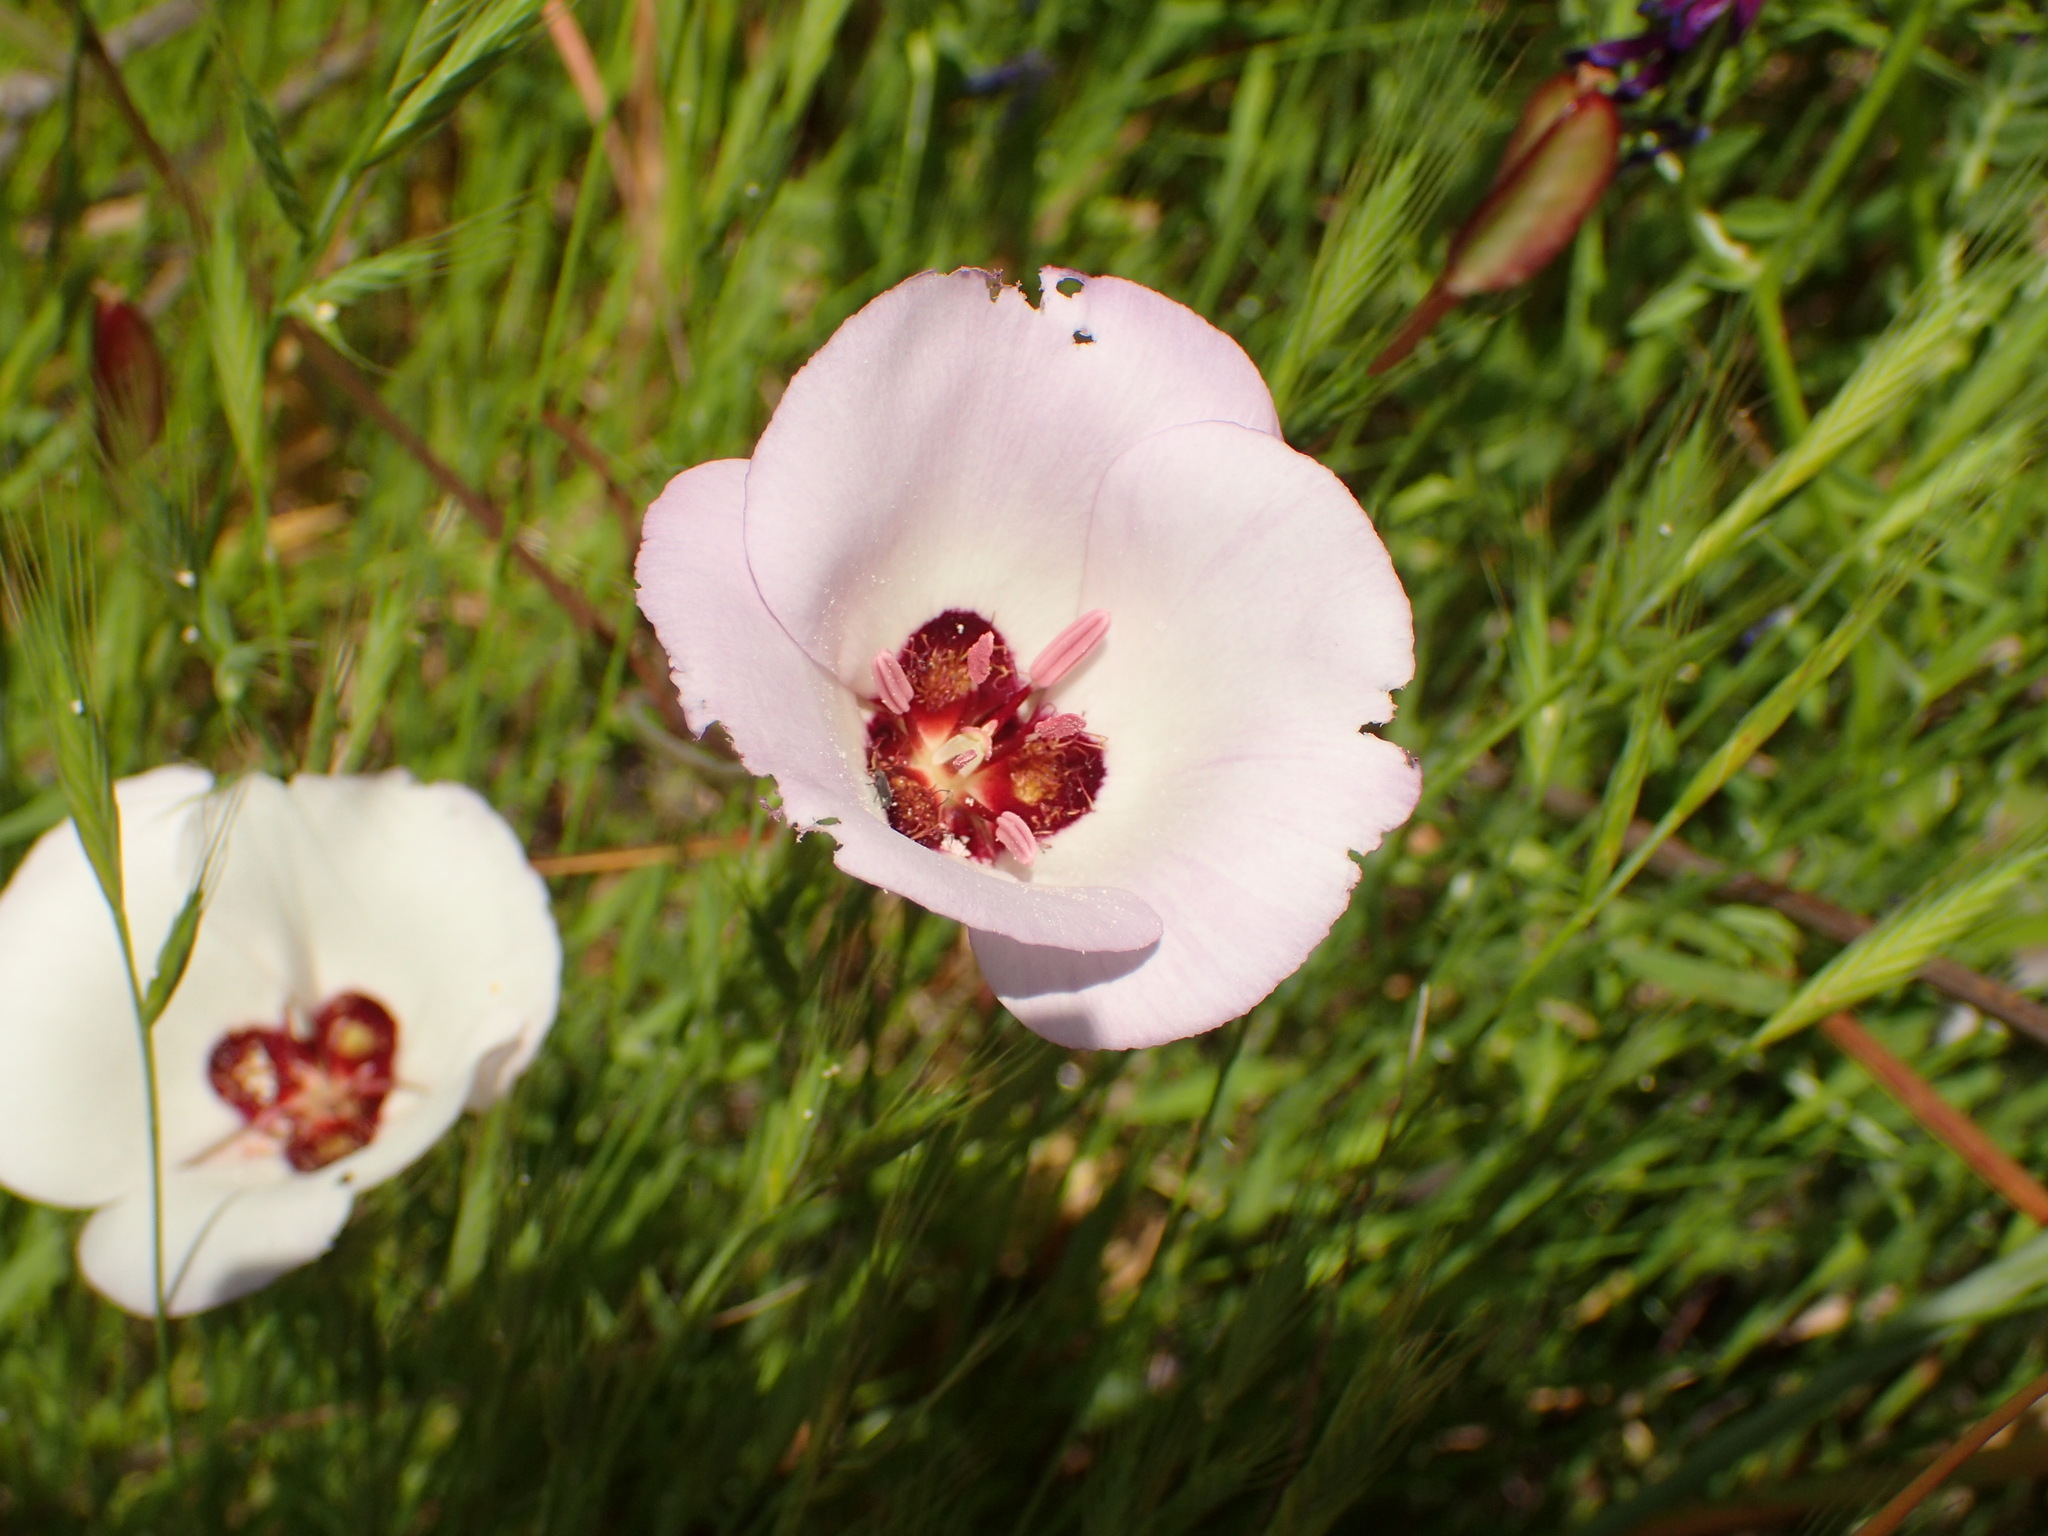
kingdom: Plantae
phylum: Tracheophyta
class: Liliopsida
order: Liliales
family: Liliaceae
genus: Calochortus
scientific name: Calochortus catalinae
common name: Catalina mariposa-lily
